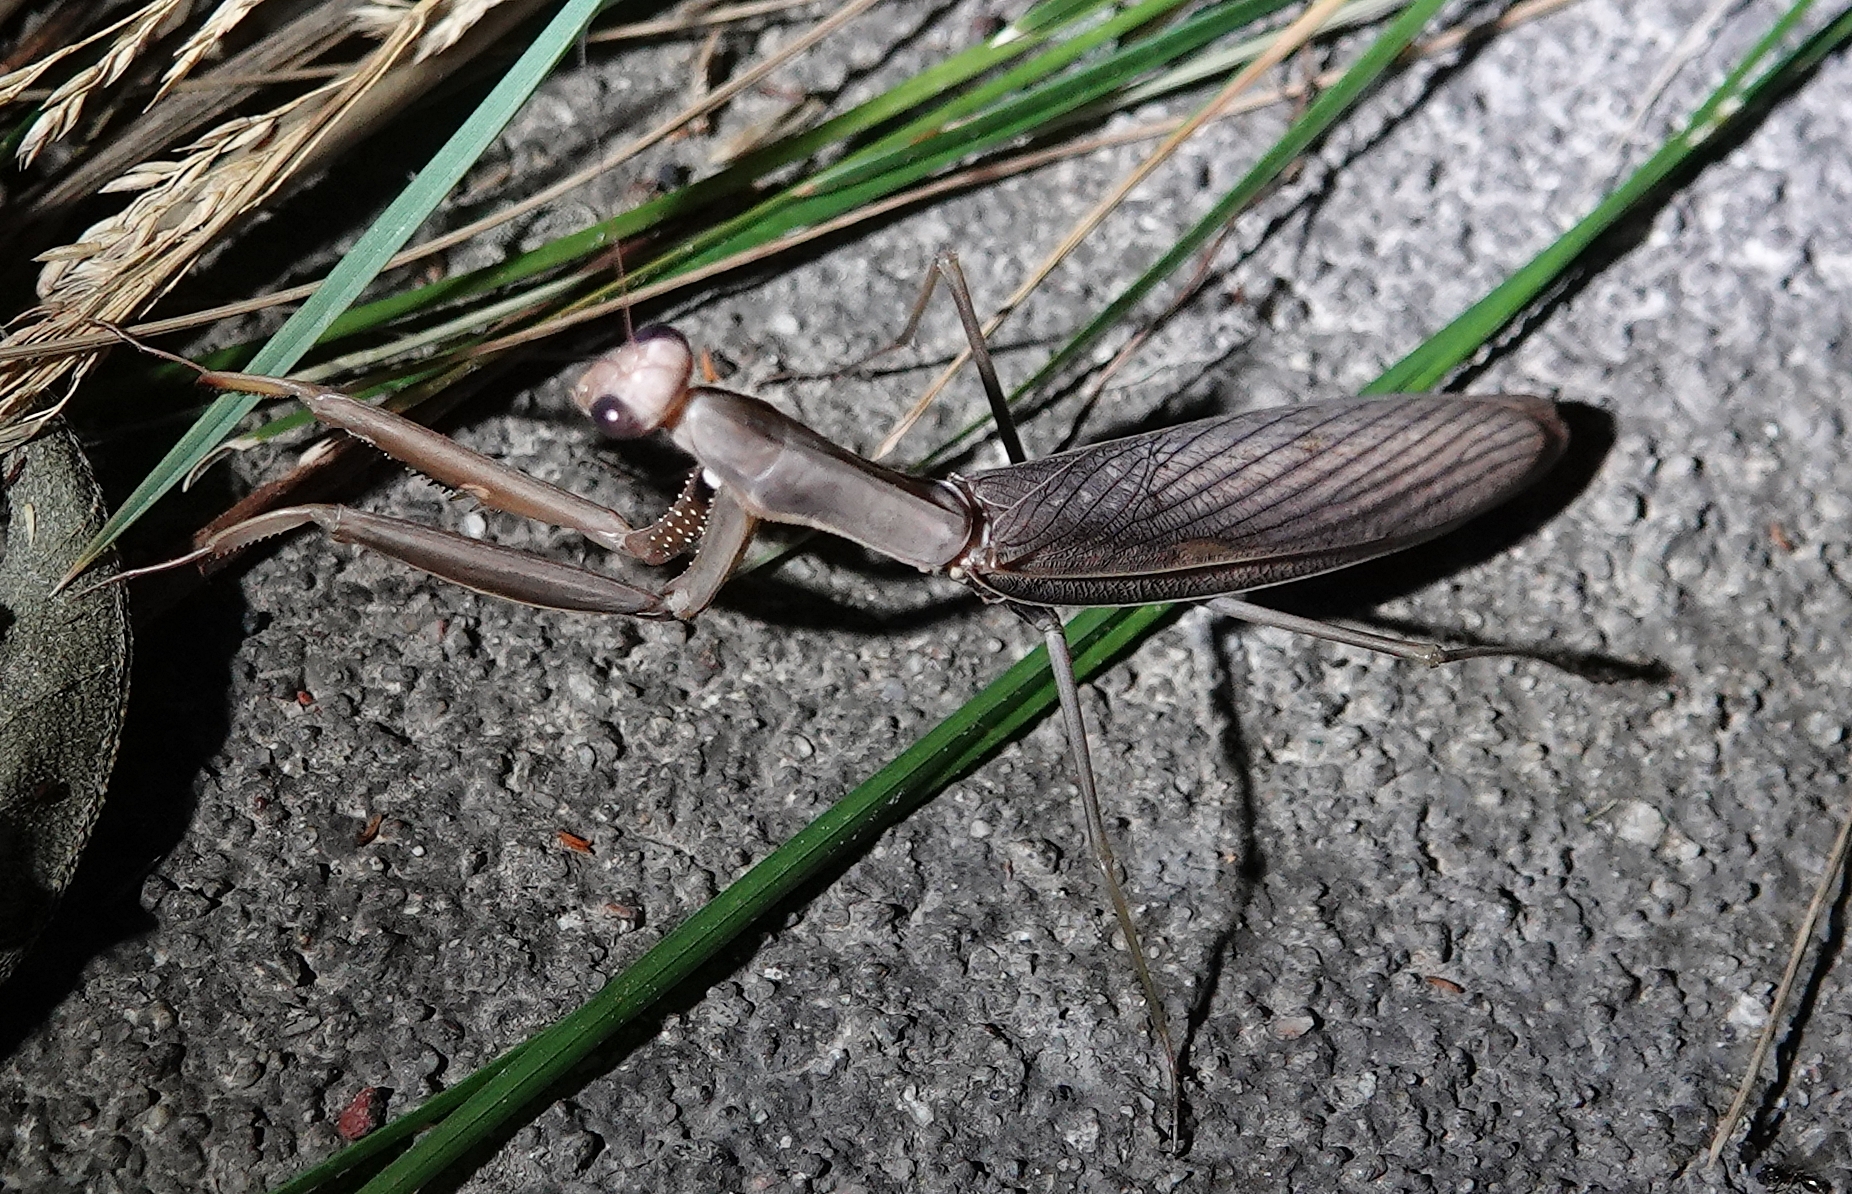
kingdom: Animalia
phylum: Arthropoda
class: Insecta
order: Mantodea
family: Mantidae
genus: Mantis
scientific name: Mantis religiosa
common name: Praying mantis
